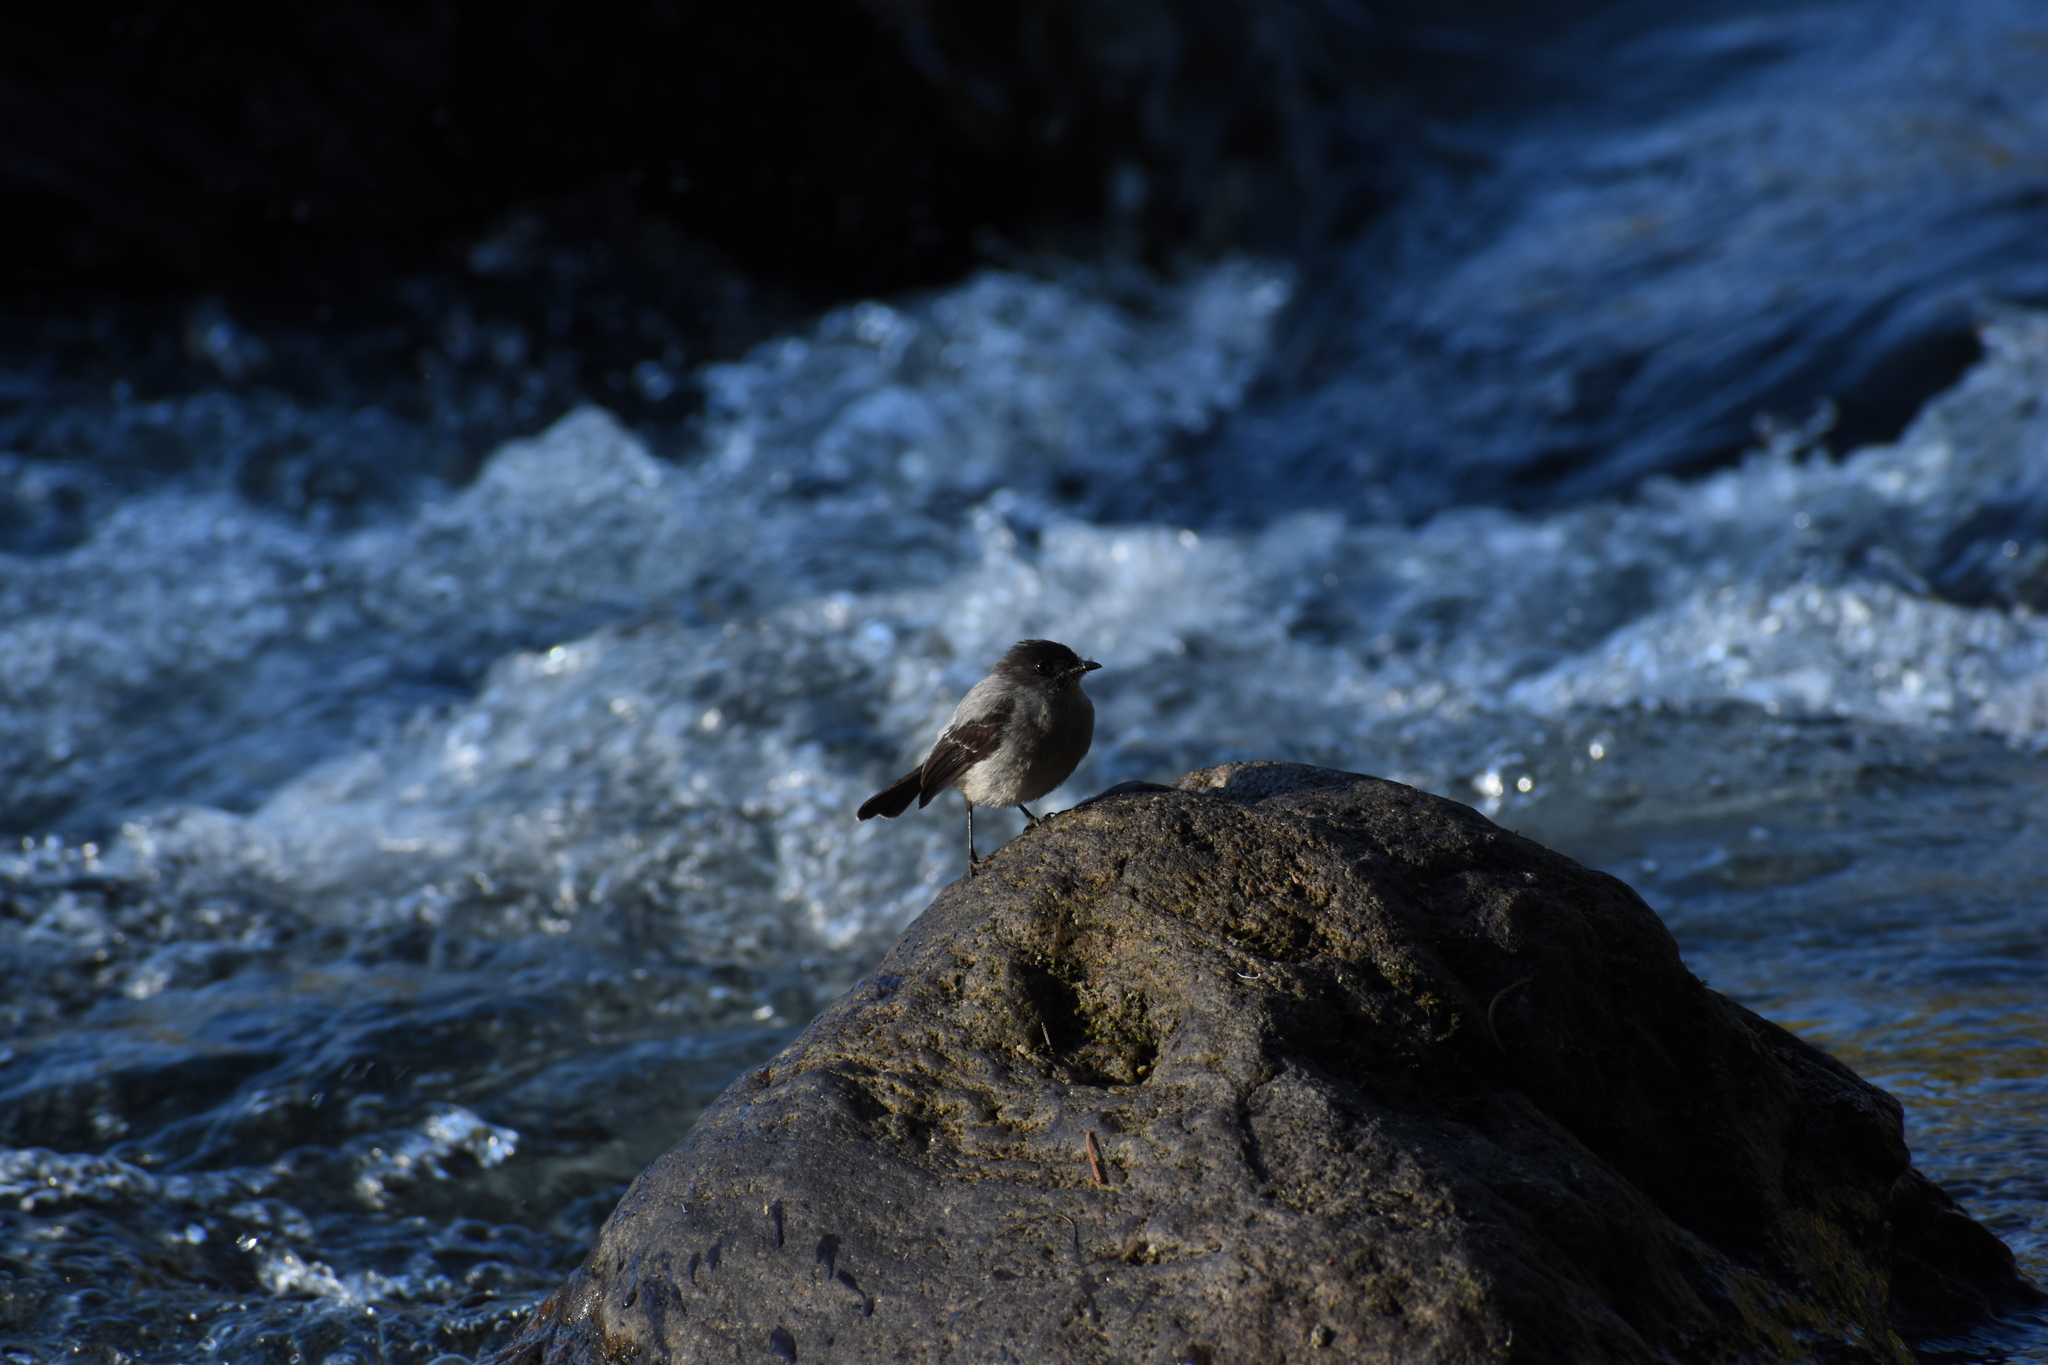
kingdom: Animalia
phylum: Chordata
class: Aves
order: Passeriformes
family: Tyrannidae
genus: Serpophaga
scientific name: Serpophaga cinerea
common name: Torrent tyrannulet
